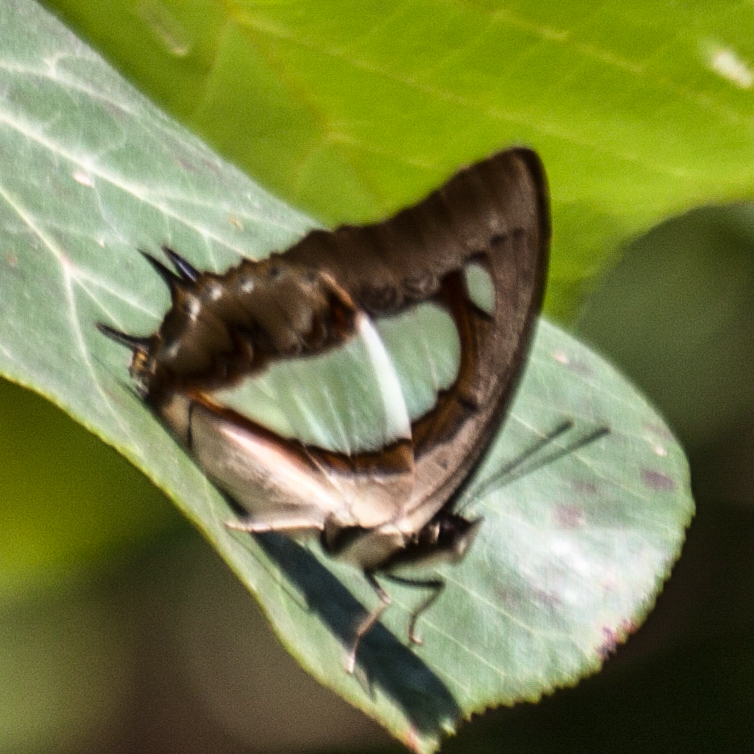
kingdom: Animalia
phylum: Arthropoda
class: Insecta
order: Lepidoptera
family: Nymphalidae
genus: Polyura
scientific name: Polyura arja
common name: Pallid nawab
